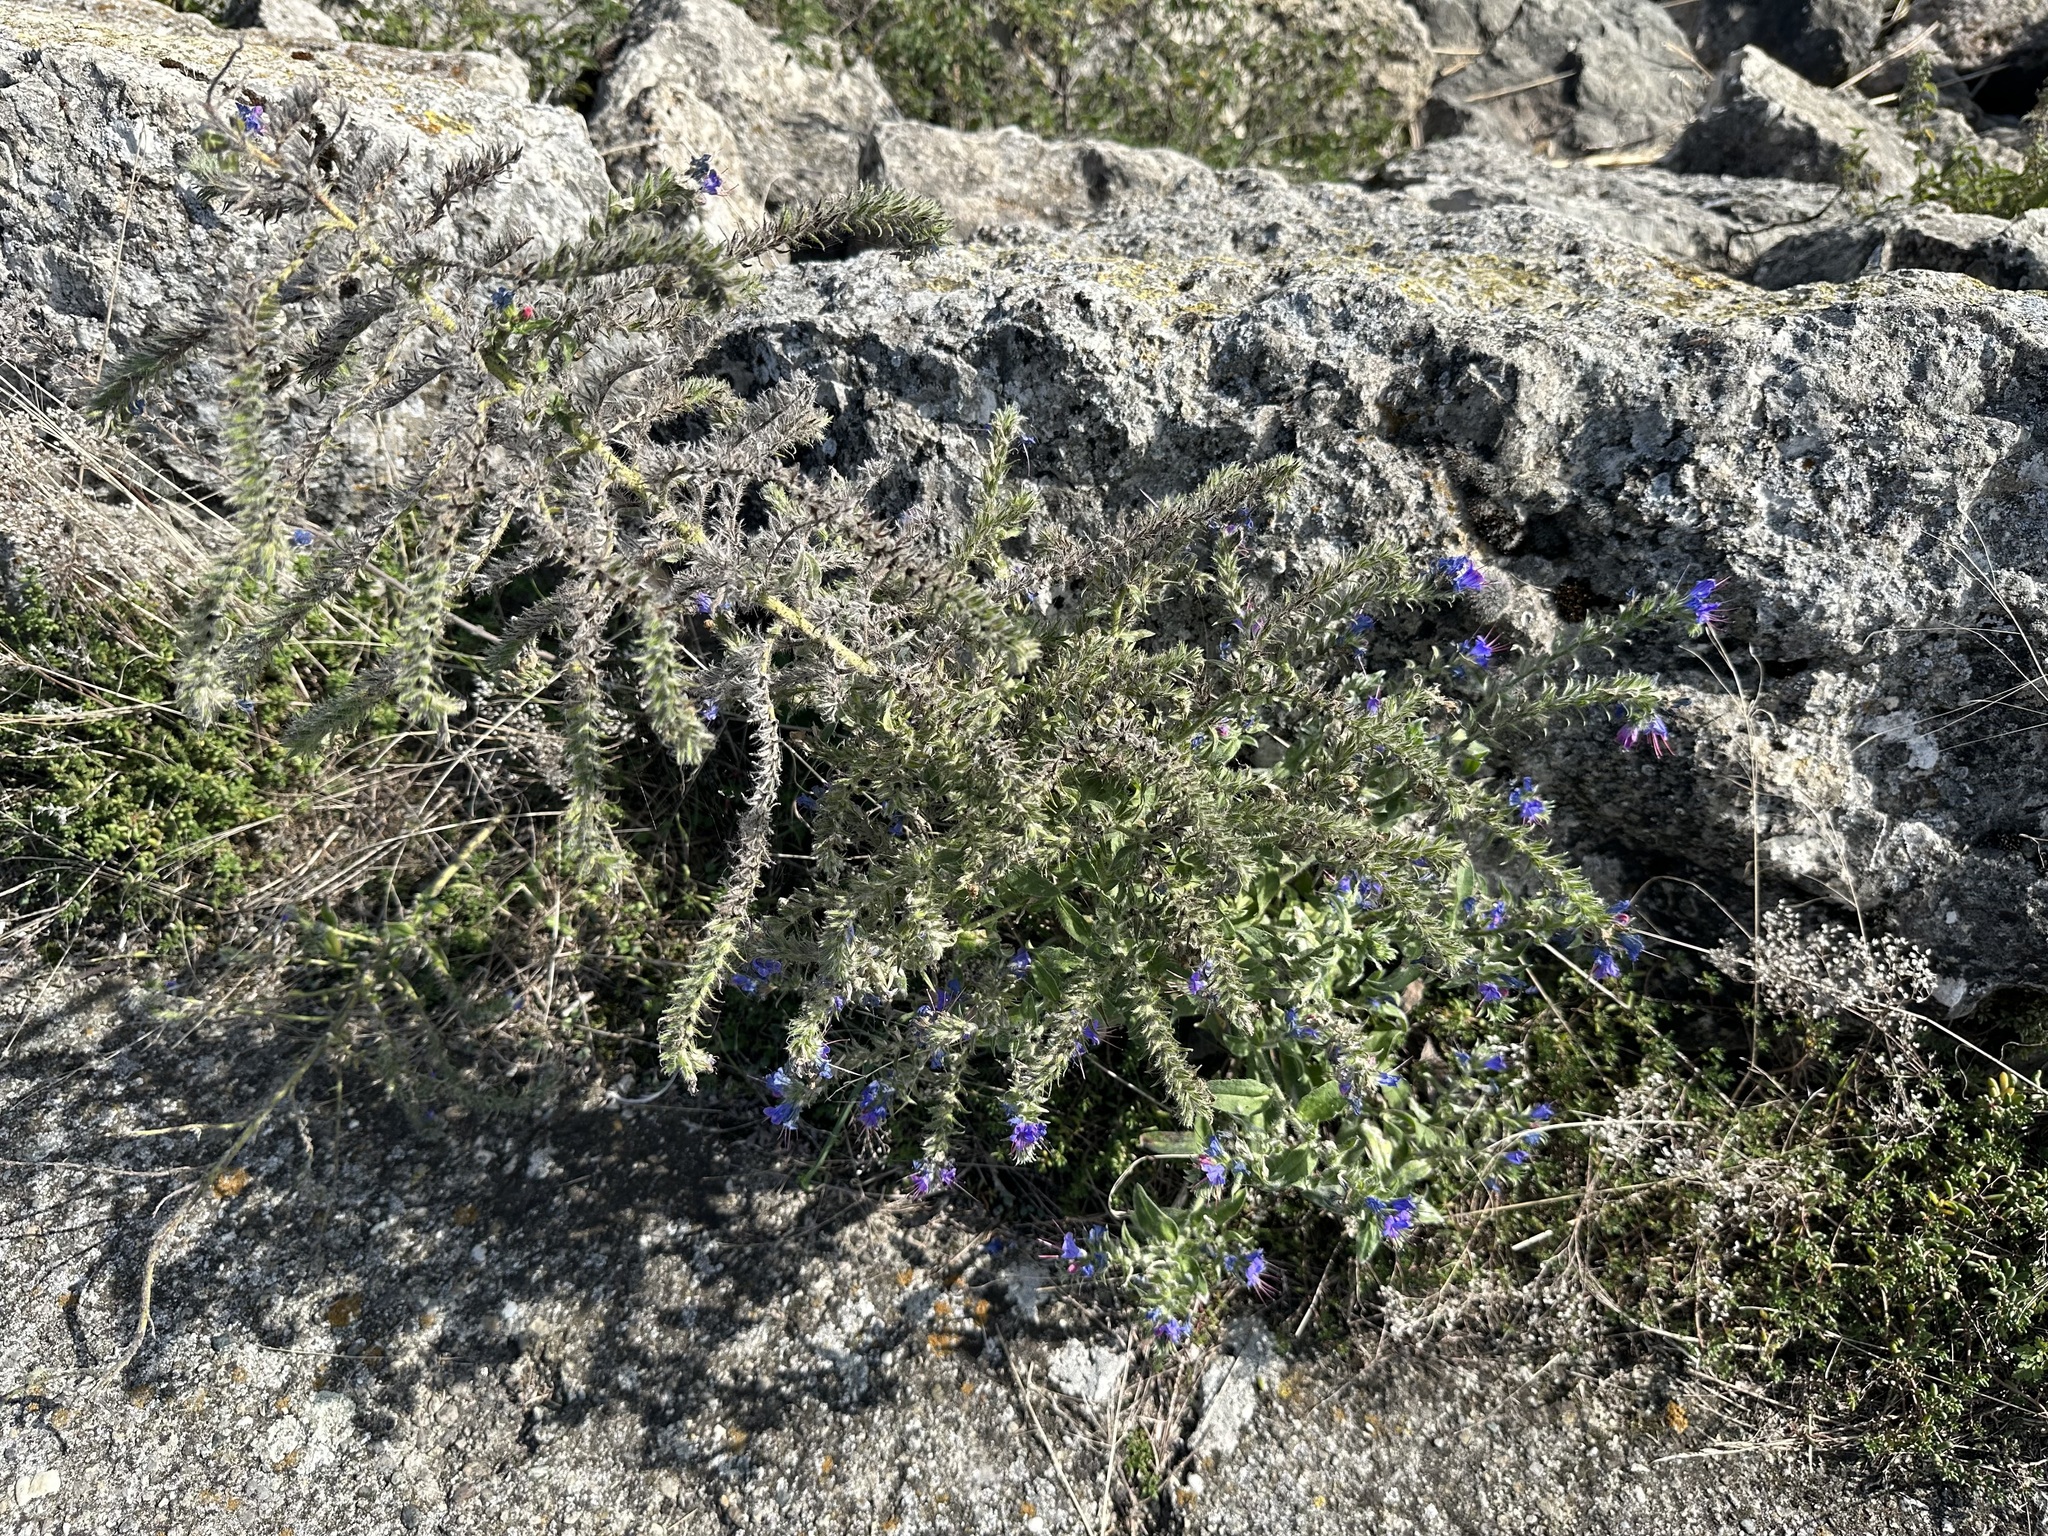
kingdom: Plantae
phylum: Tracheophyta
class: Magnoliopsida
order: Boraginales
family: Boraginaceae
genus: Echium
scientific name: Echium vulgare
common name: Common viper's bugloss
